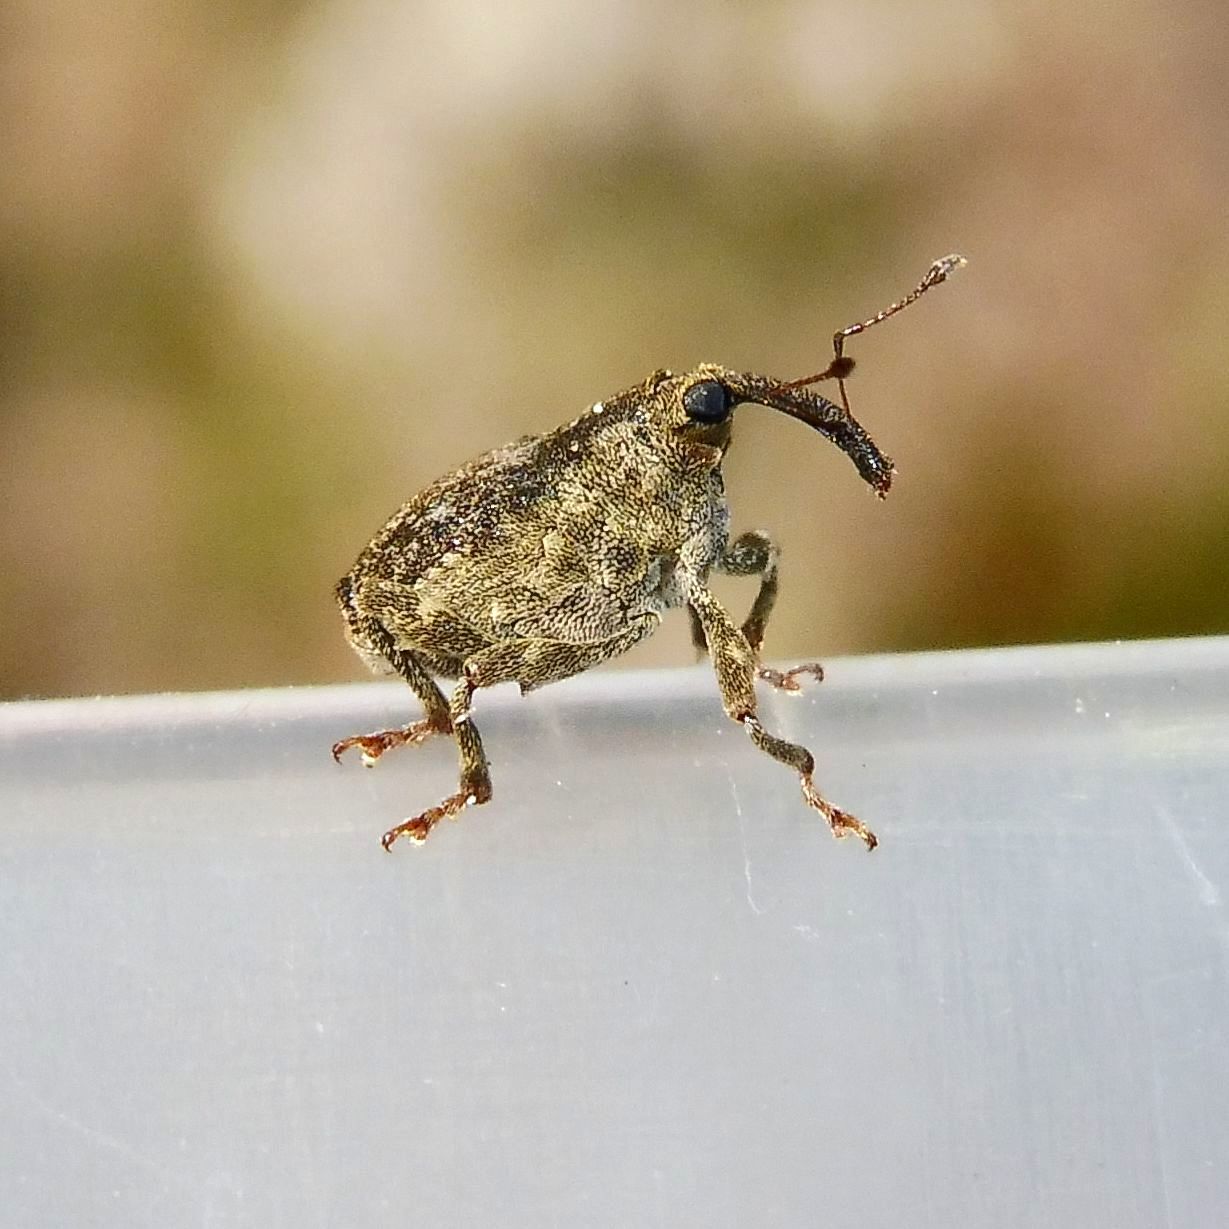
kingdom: Animalia
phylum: Arthropoda
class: Insecta
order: Coleoptera
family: Curculionidae
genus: Parethelcus
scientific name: Parethelcus pollinarius
